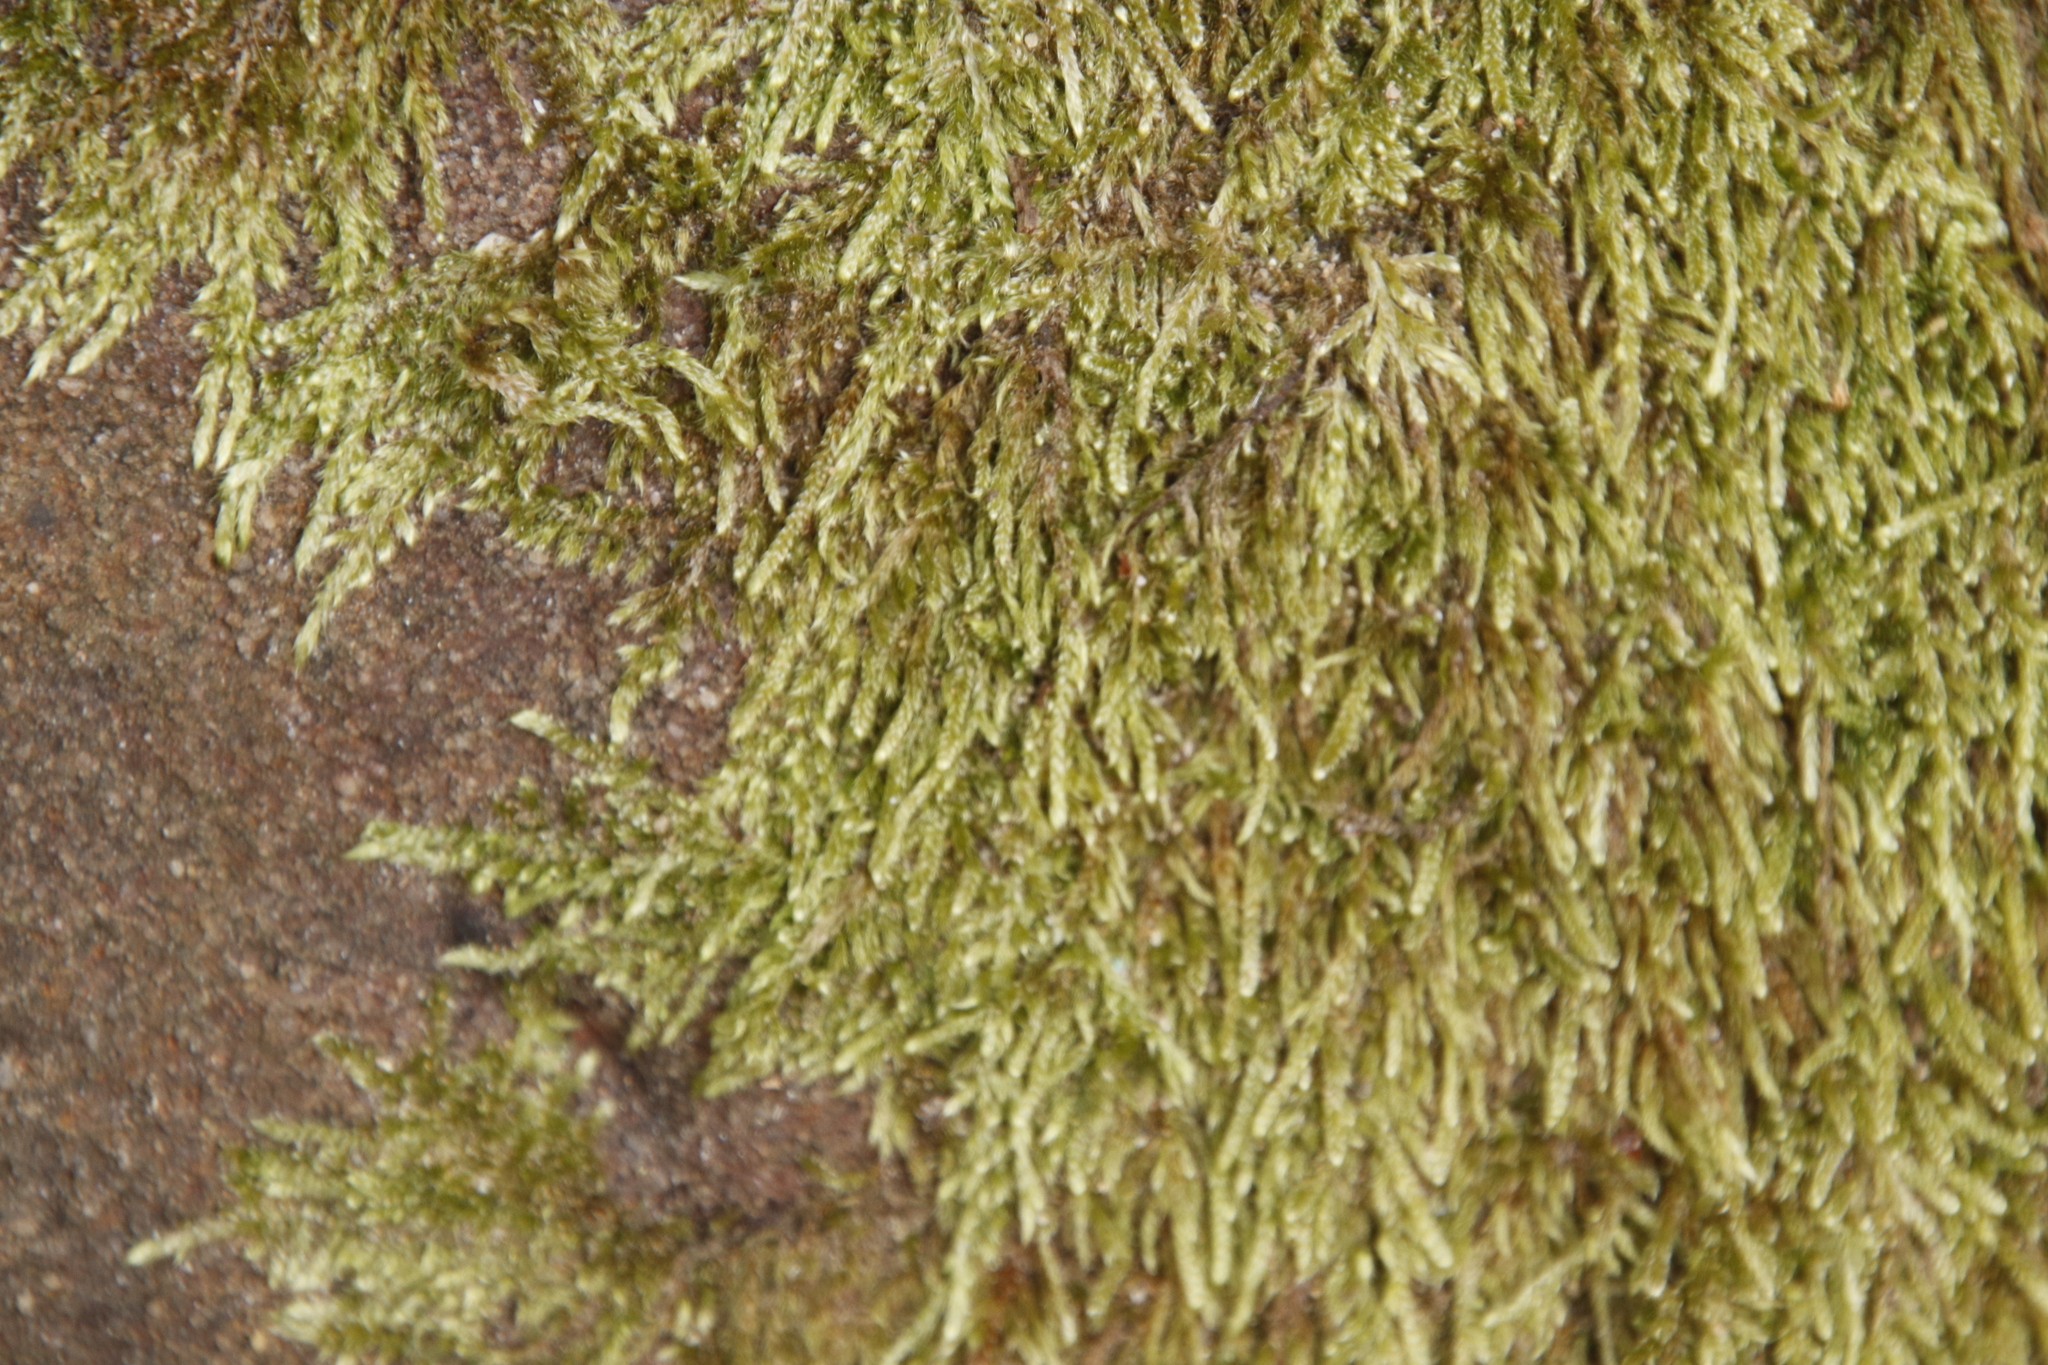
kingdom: Plantae
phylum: Bryophyta
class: Bryopsida
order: Hypnales
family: Hypnaceae
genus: Hypnum
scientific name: Hypnum cupressiforme
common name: Cypress-leaved plait-moss
